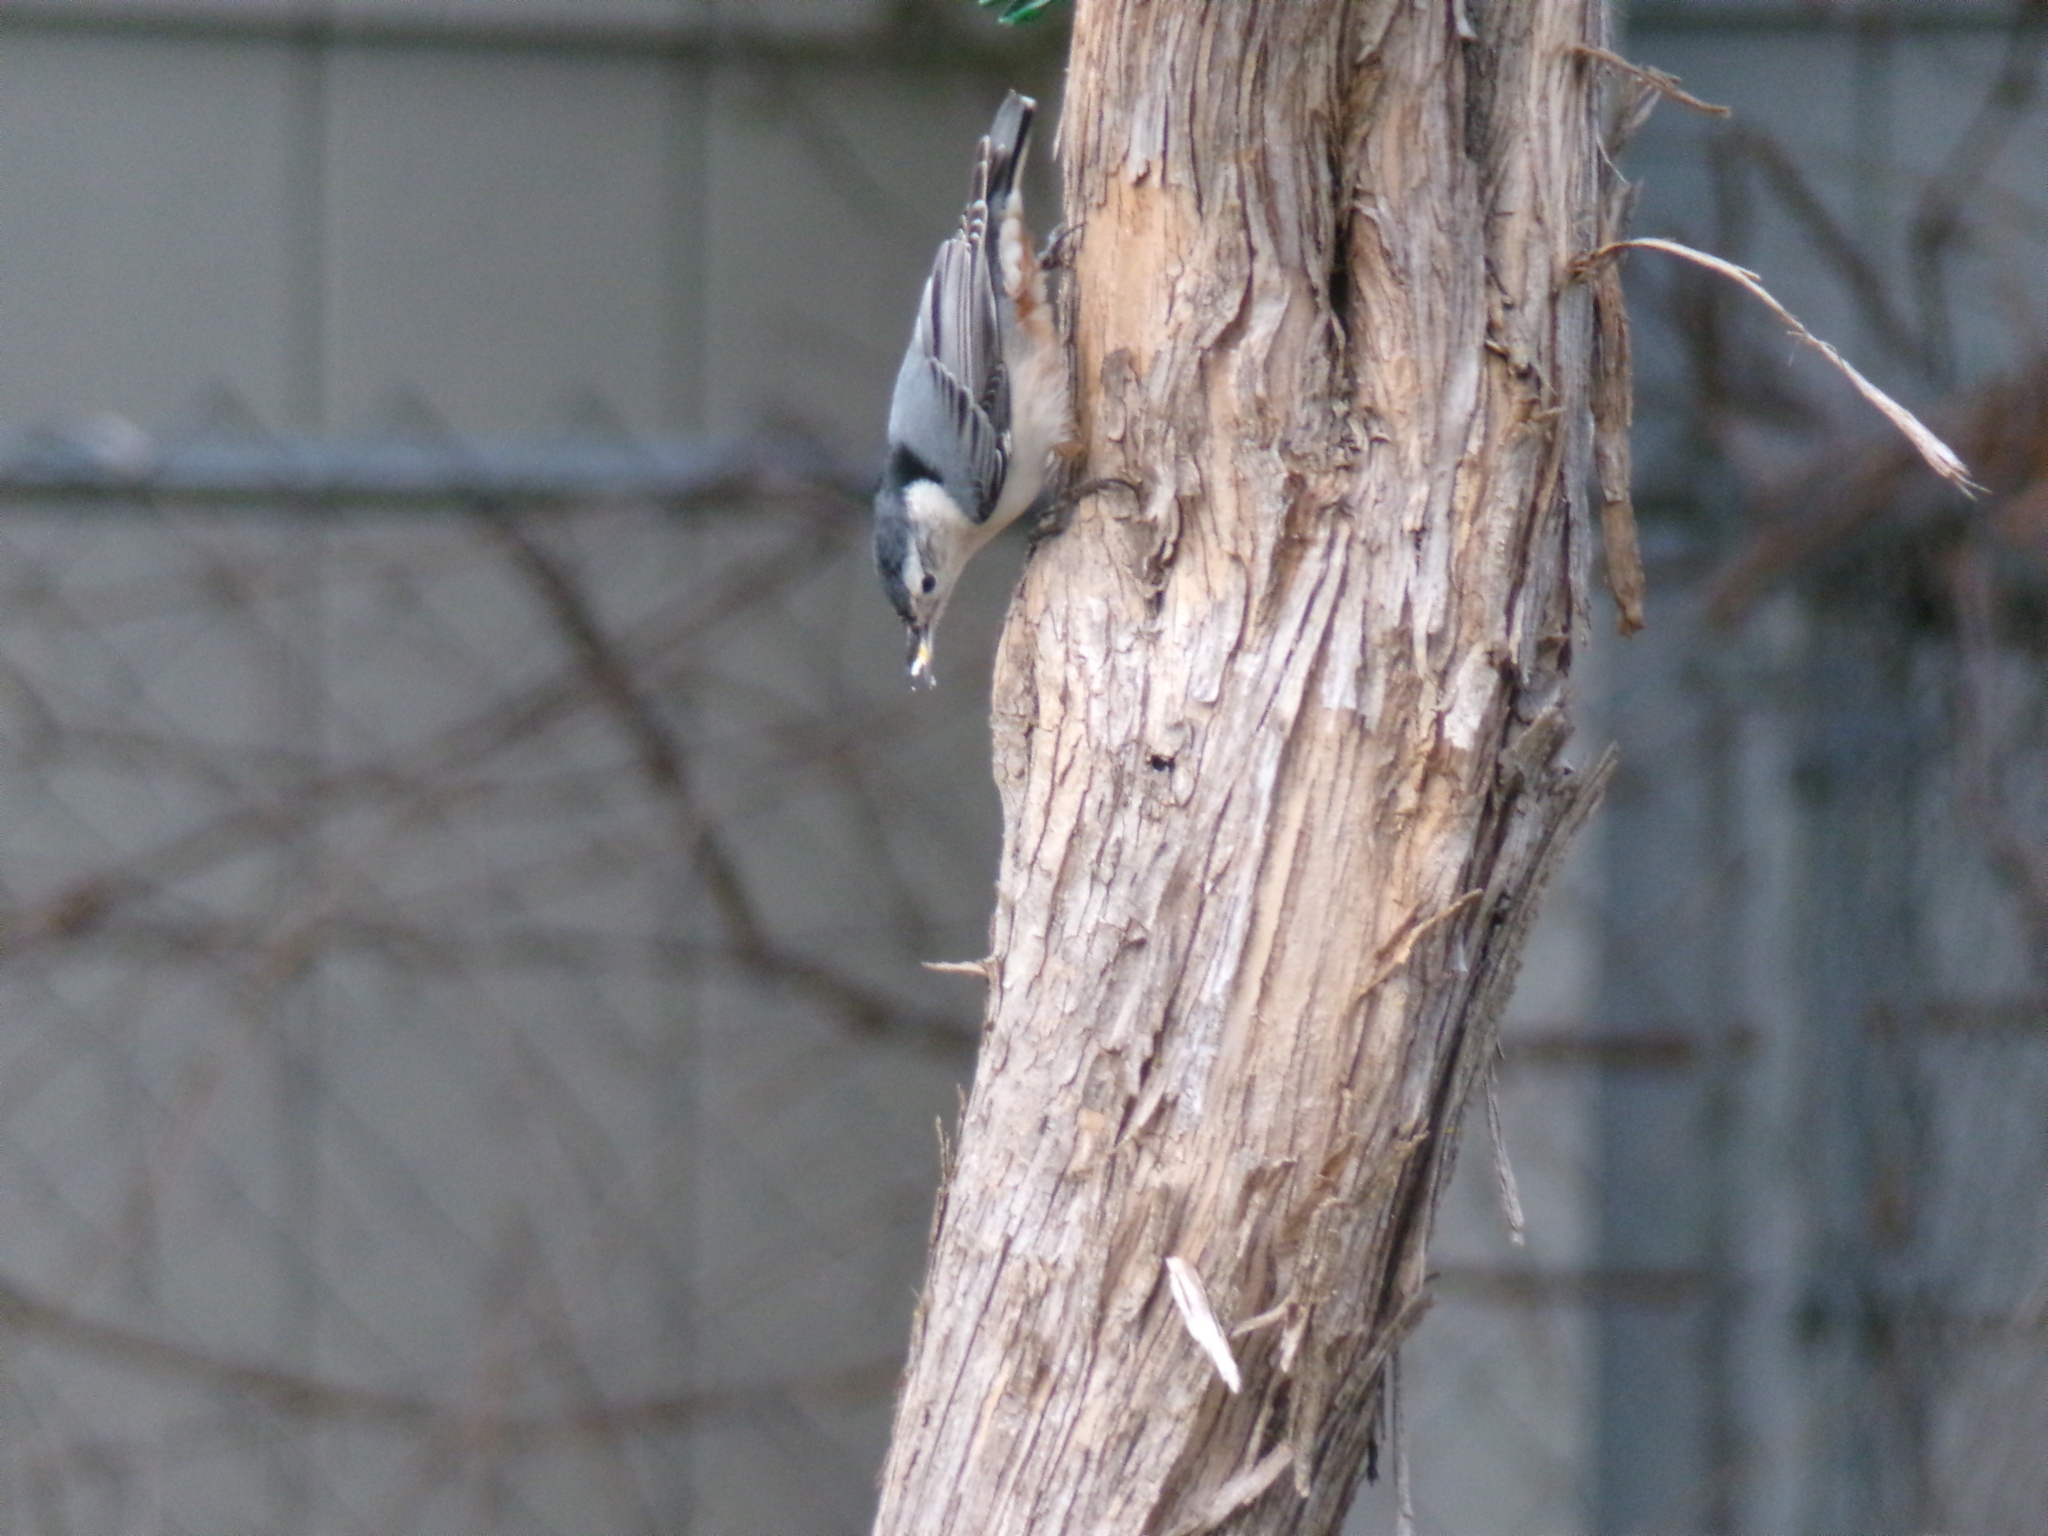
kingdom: Animalia
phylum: Chordata
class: Aves
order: Passeriformes
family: Sittidae
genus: Sitta
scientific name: Sitta carolinensis
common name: White-breasted nuthatch
